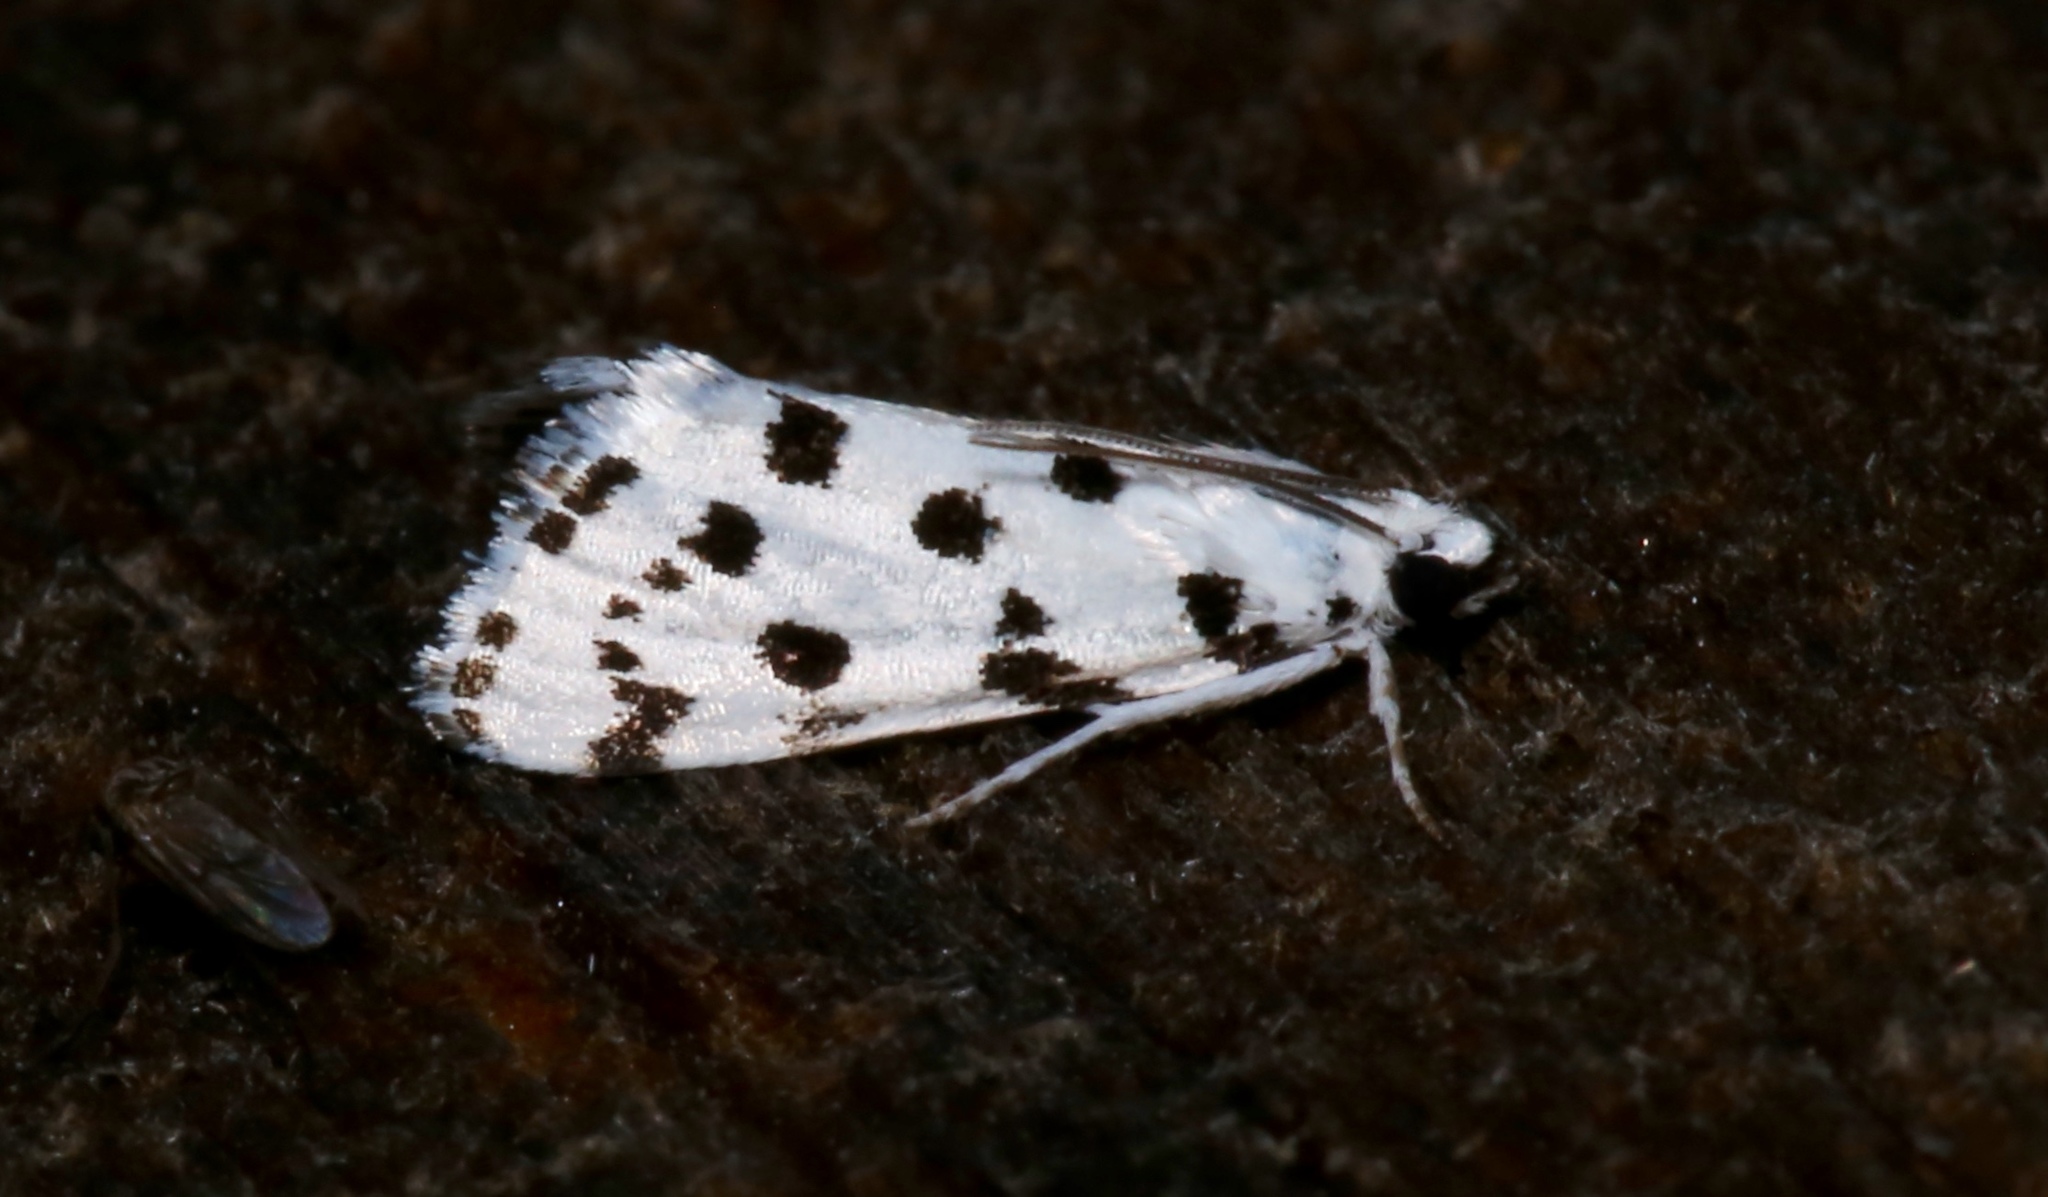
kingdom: Animalia
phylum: Arthropoda
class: Insecta
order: Lepidoptera
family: Crambidae
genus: Eustixia
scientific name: Eustixia pupula
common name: American cabbage pearl
